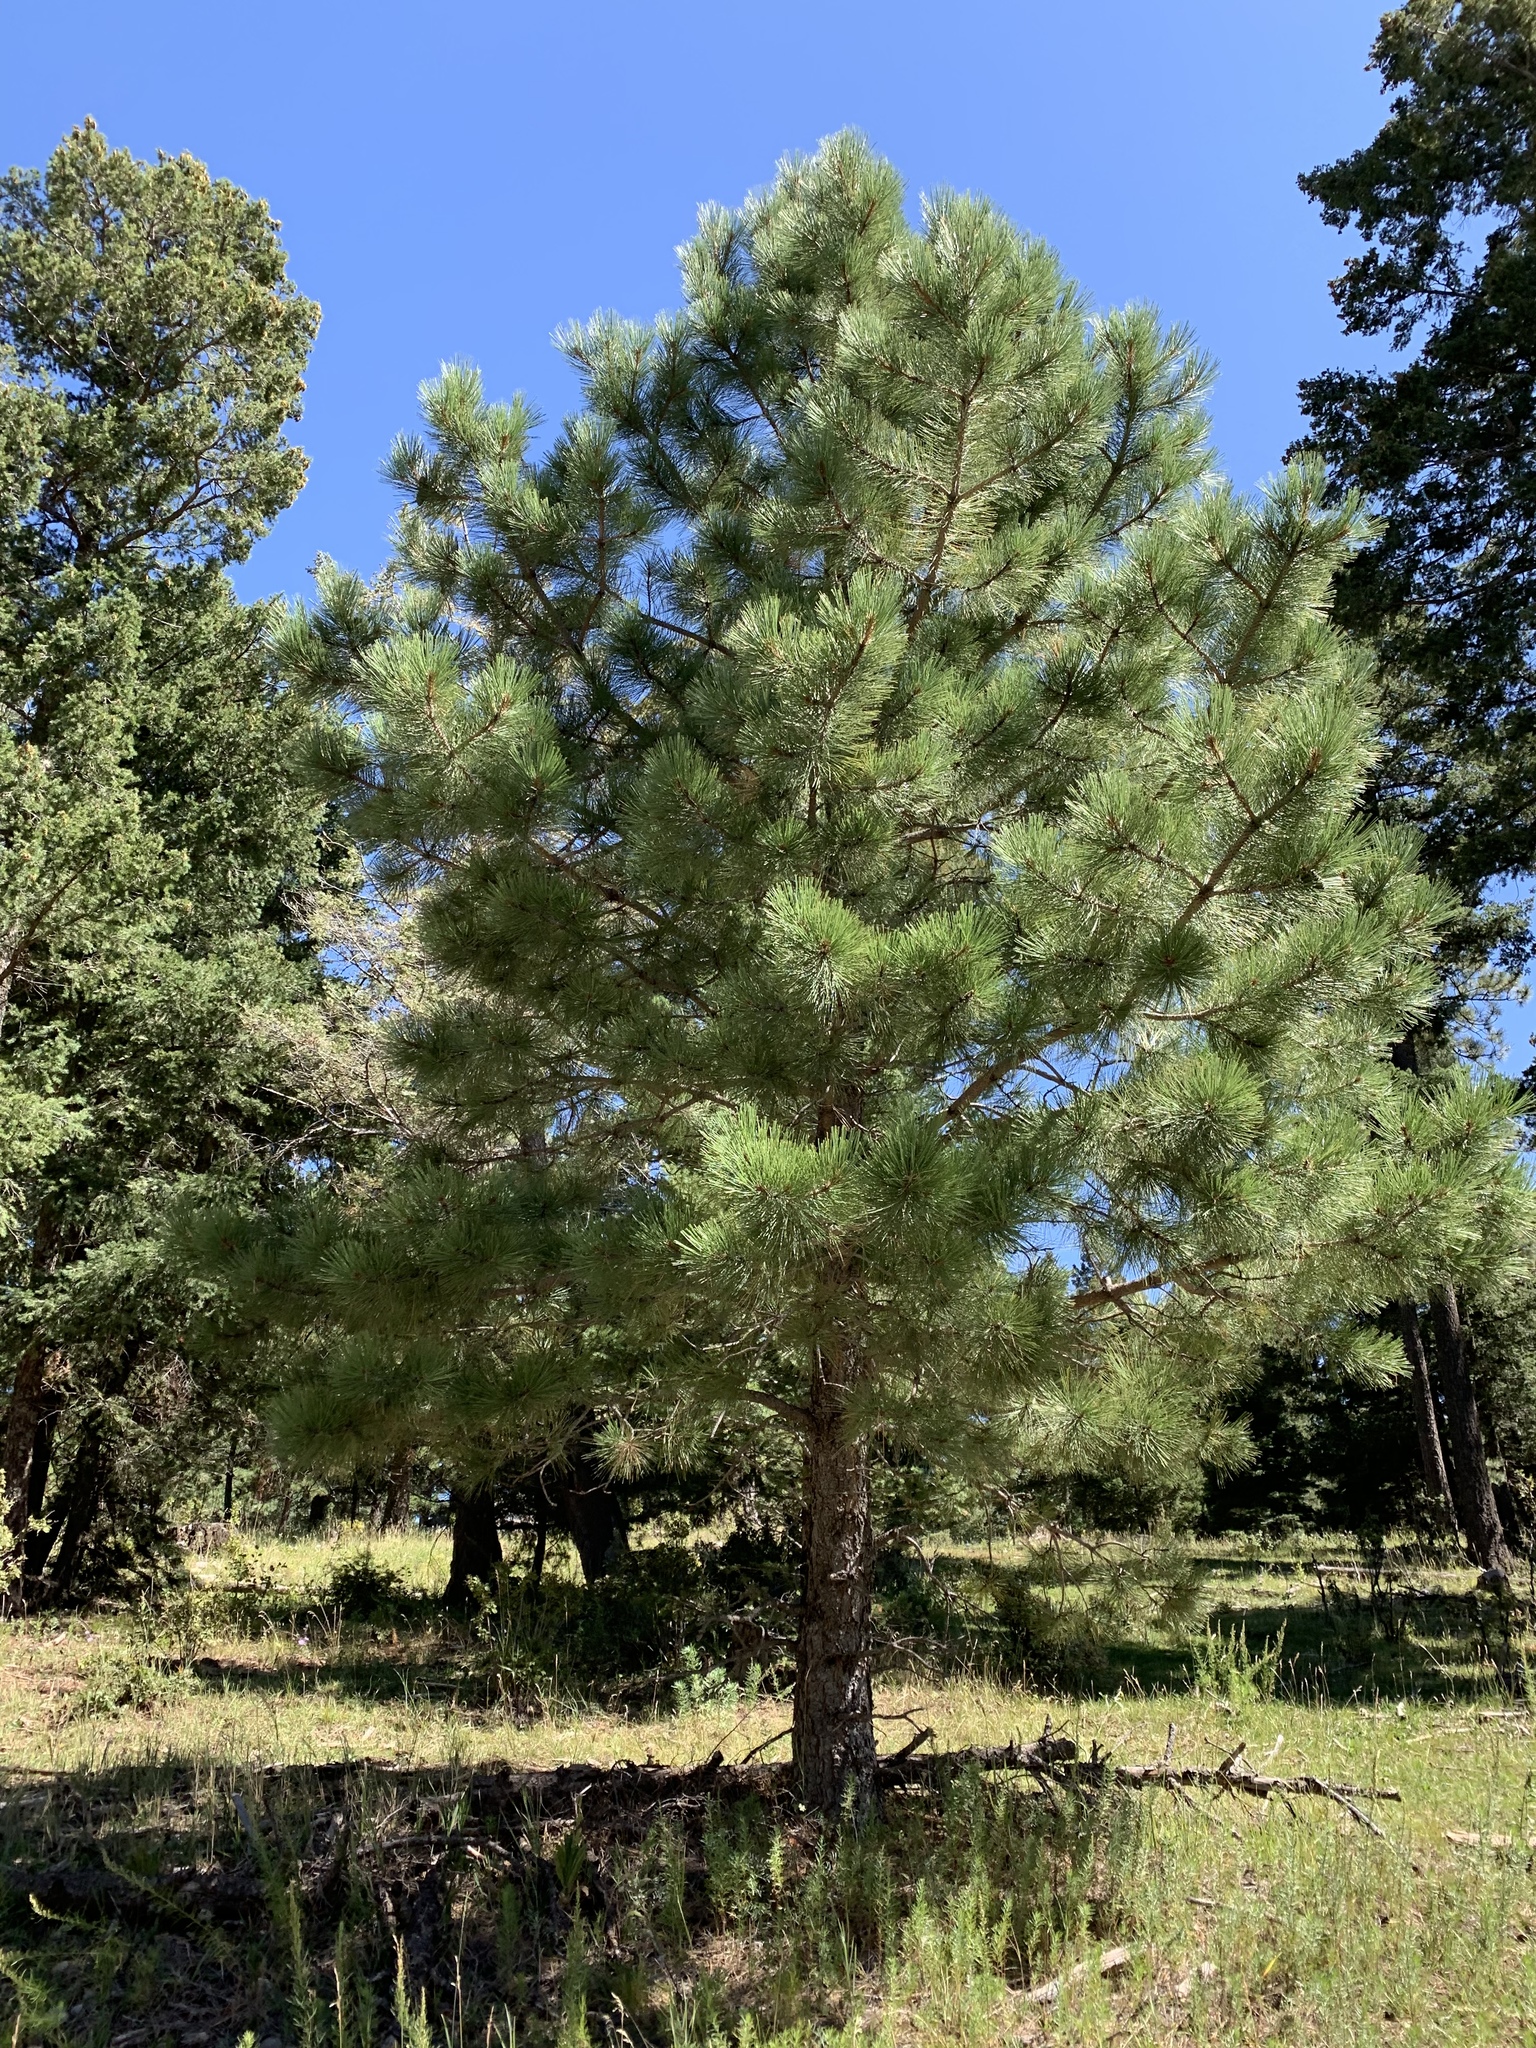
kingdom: Plantae
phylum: Tracheophyta
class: Pinopsida
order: Pinales
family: Pinaceae
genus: Pinus
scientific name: Pinus ponderosa
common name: Western yellow-pine
